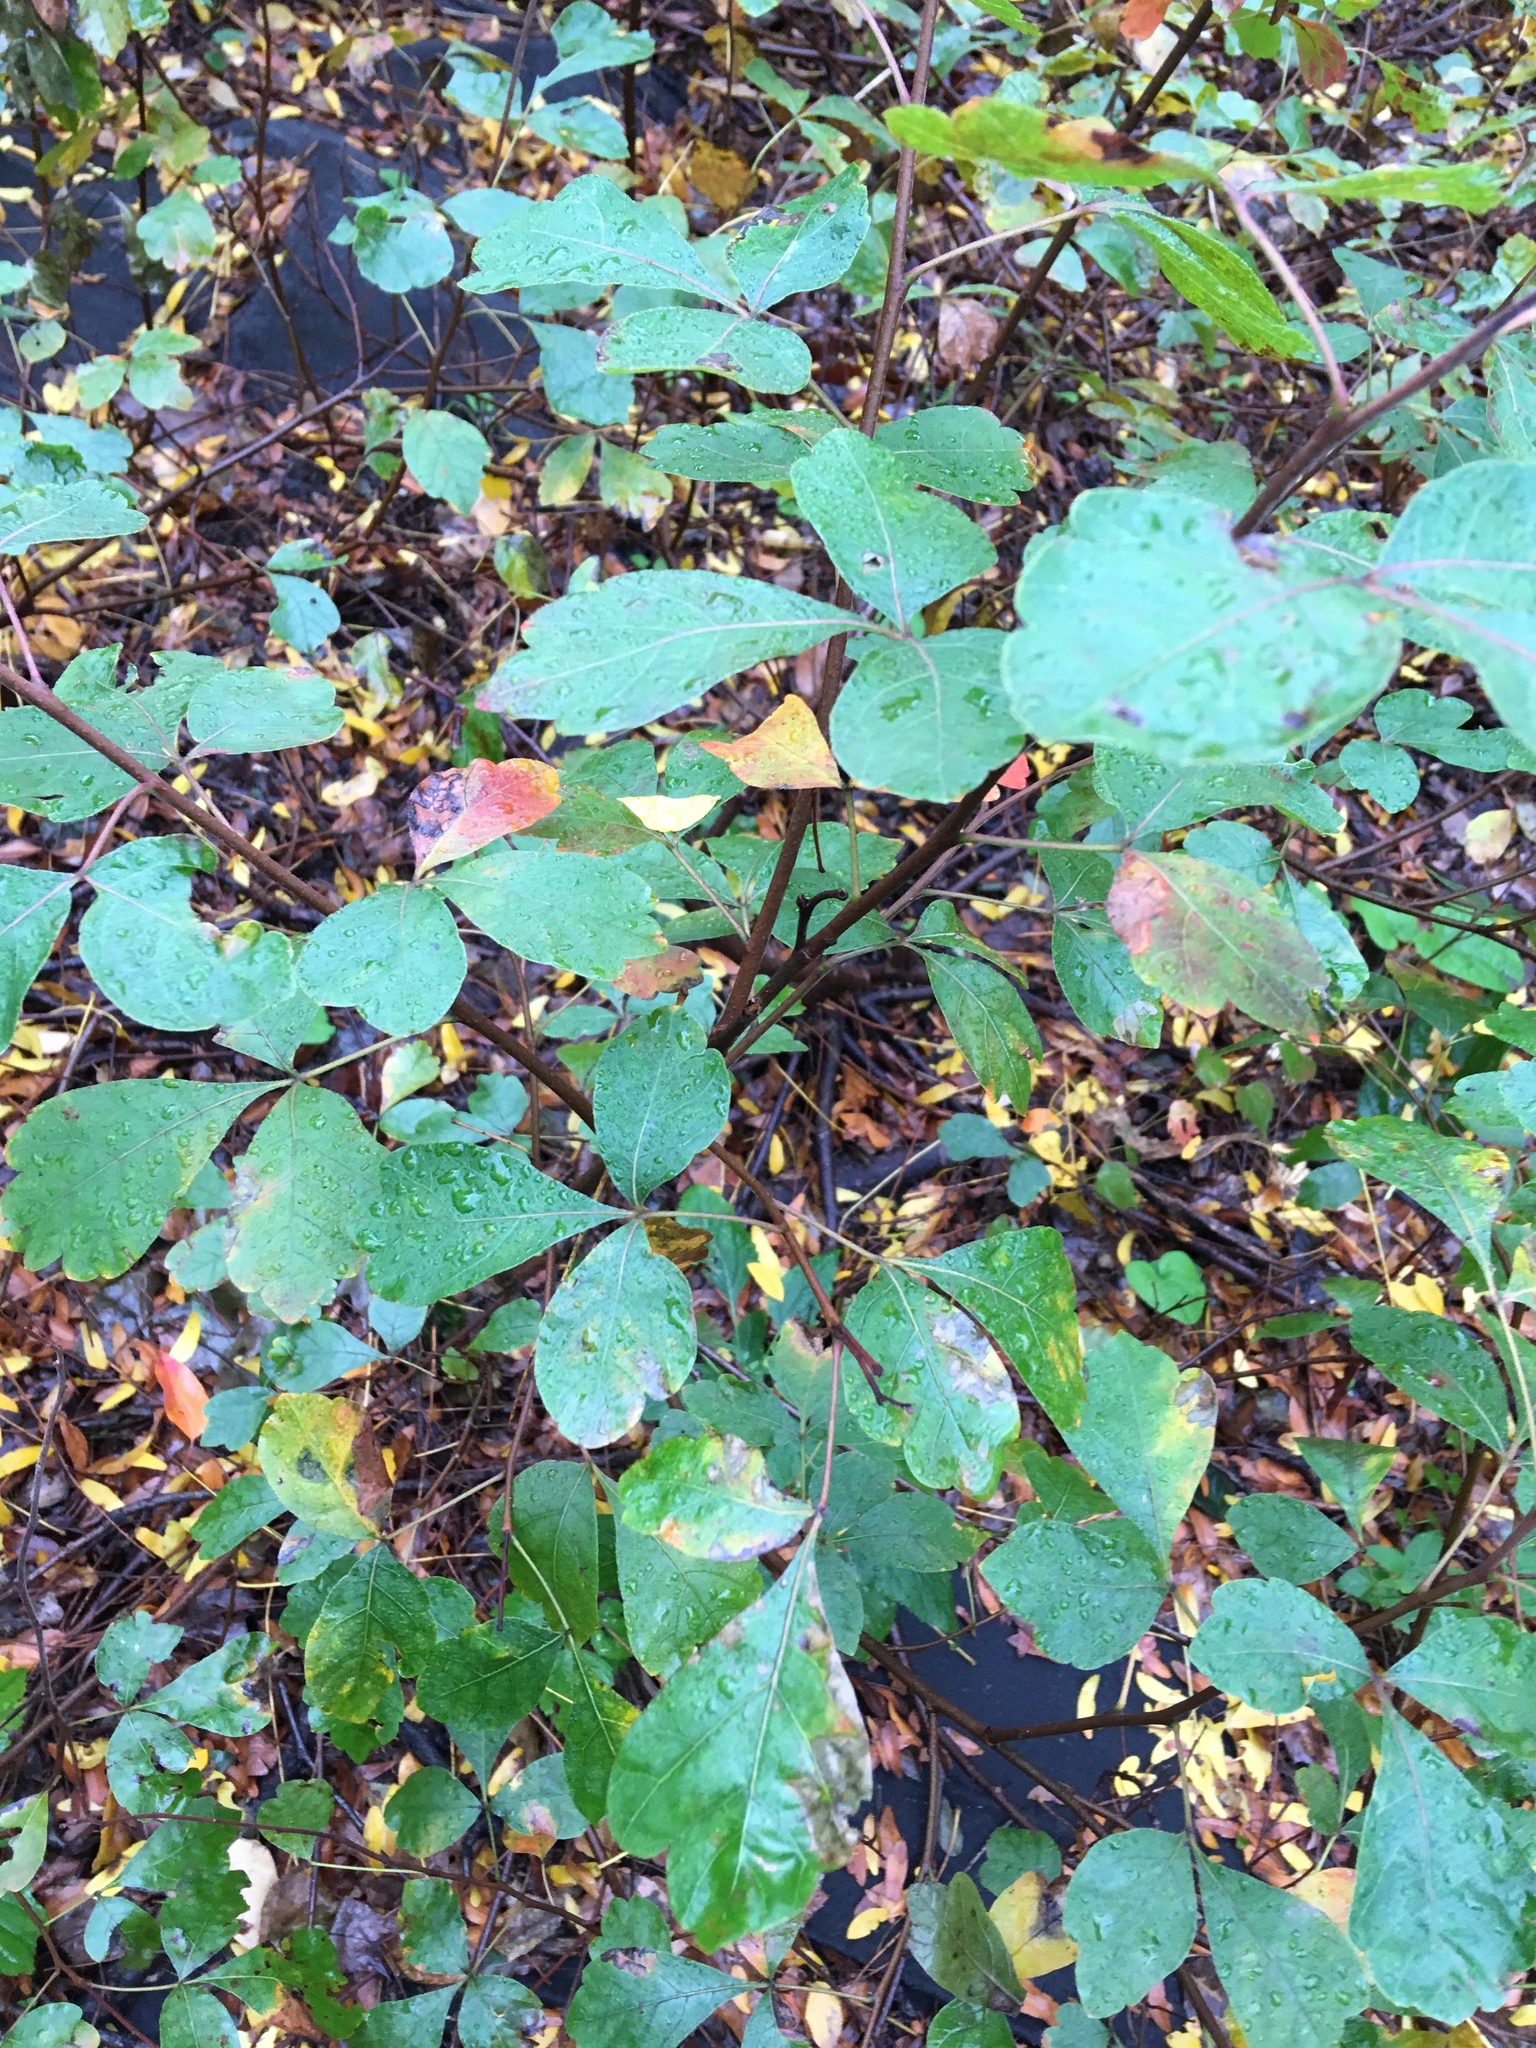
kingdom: Plantae
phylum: Tracheophyta
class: Magnoliopsida
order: Sapindales
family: Anacardiaceae
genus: Rhus
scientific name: Rhus aromatica
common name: Aromatic sumac
